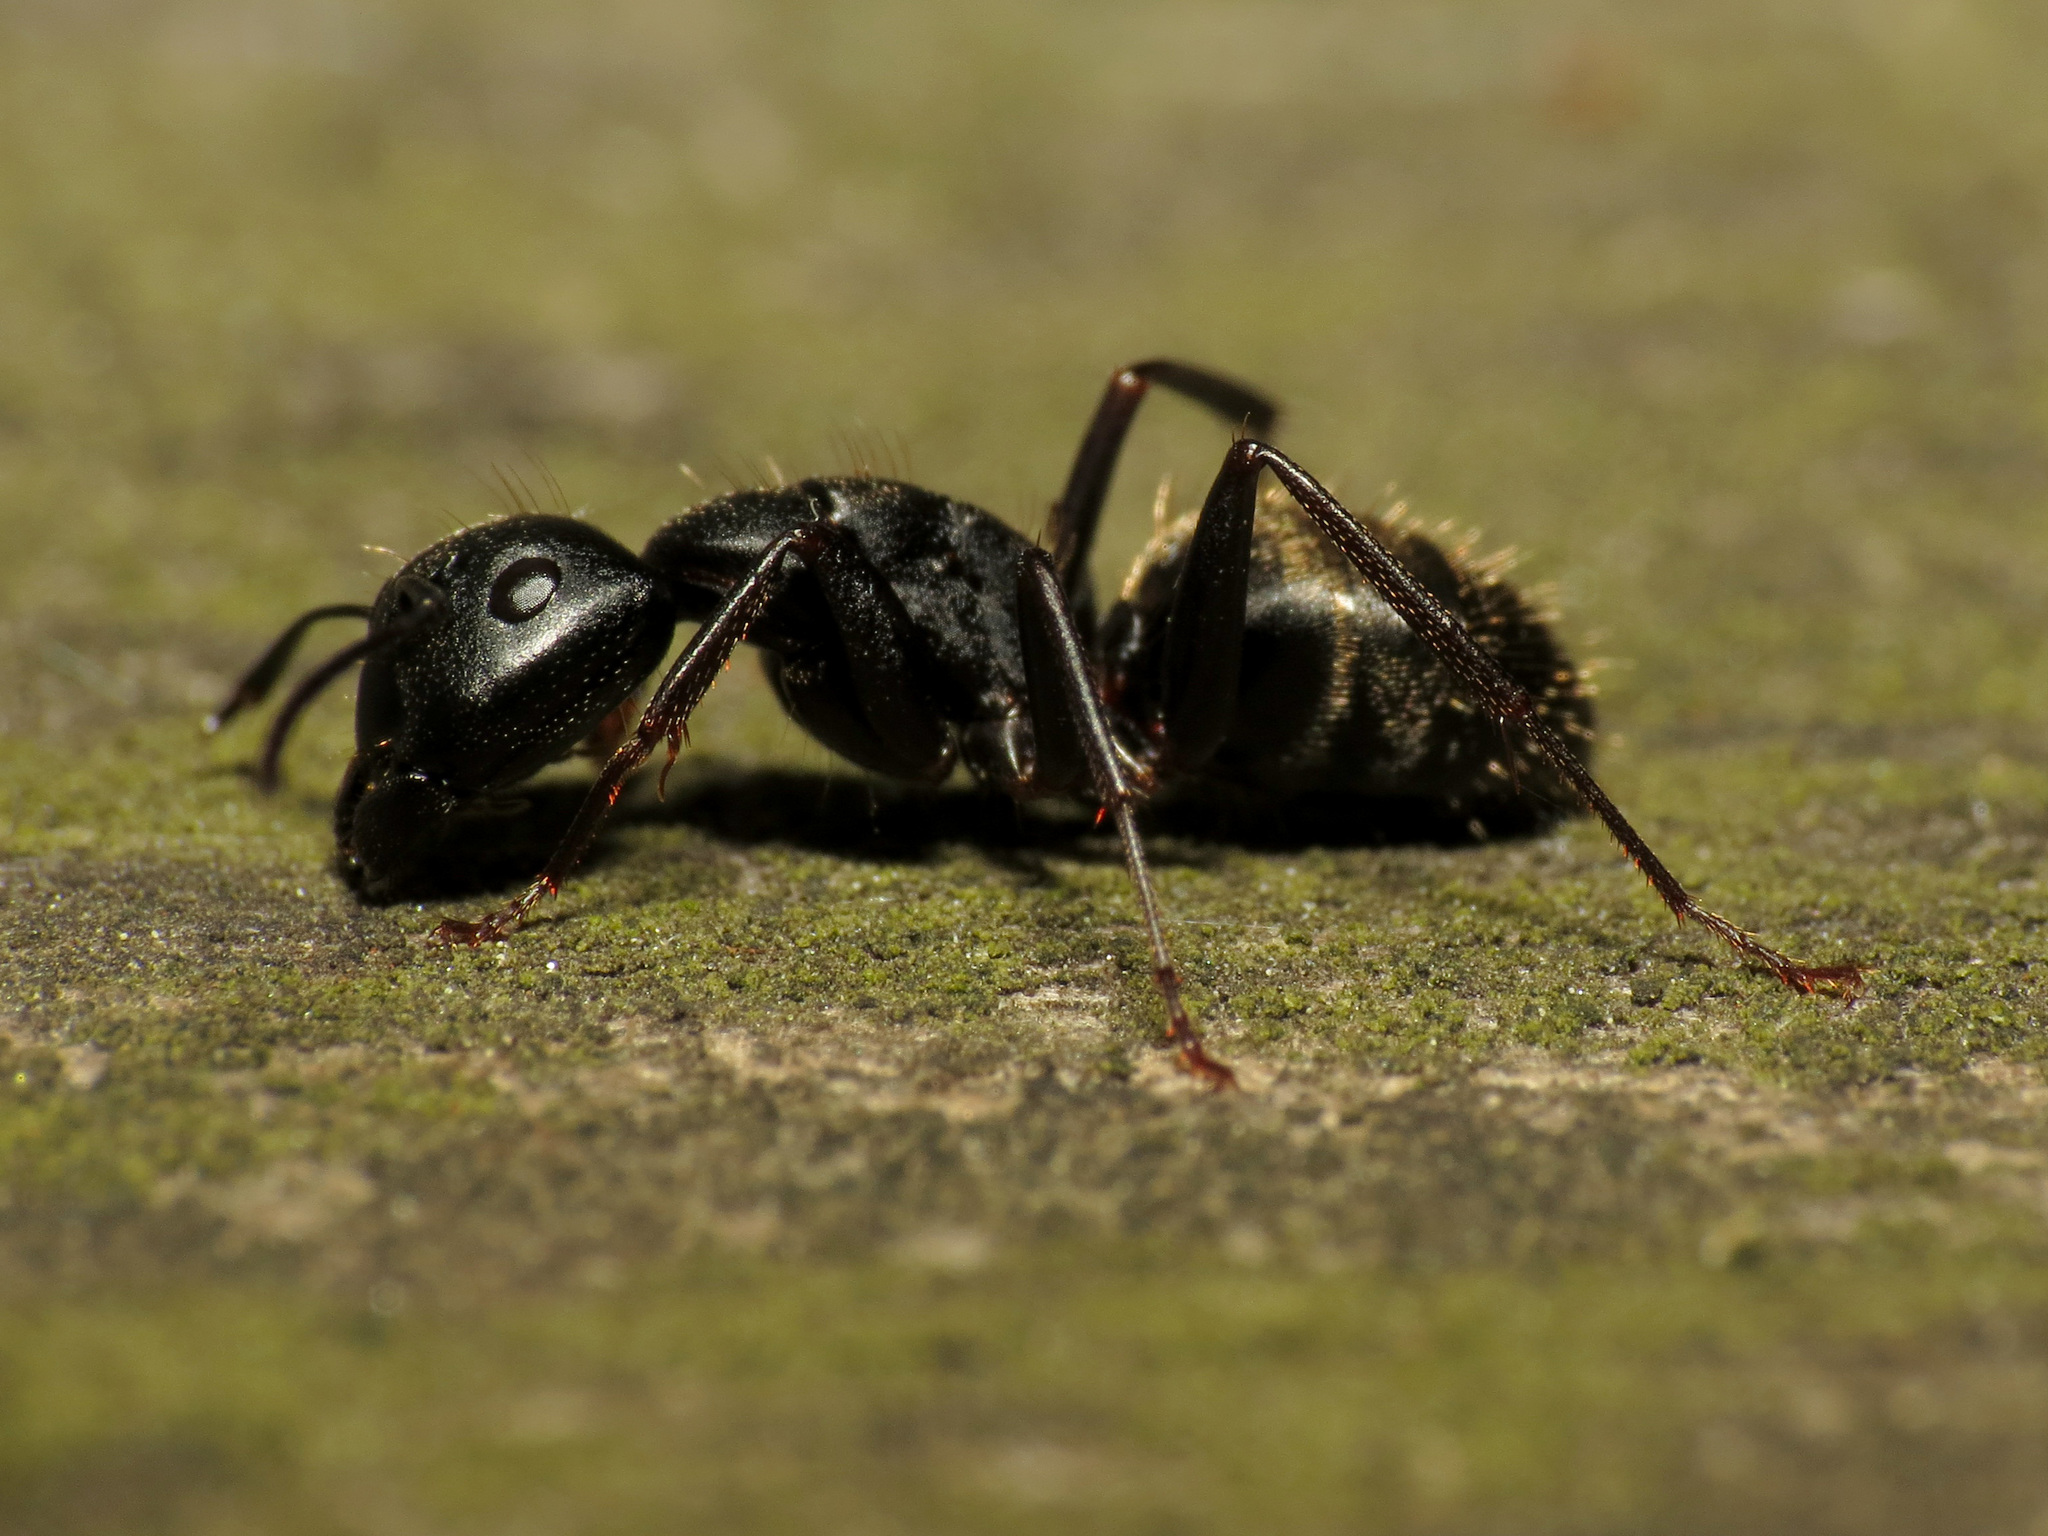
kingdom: Animalia
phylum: Arthropoda
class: Insecta
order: Hymenoptera
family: Formicidae
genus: Camponotus
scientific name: Camponotus pennsylvanicus
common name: Black carpenter ant
